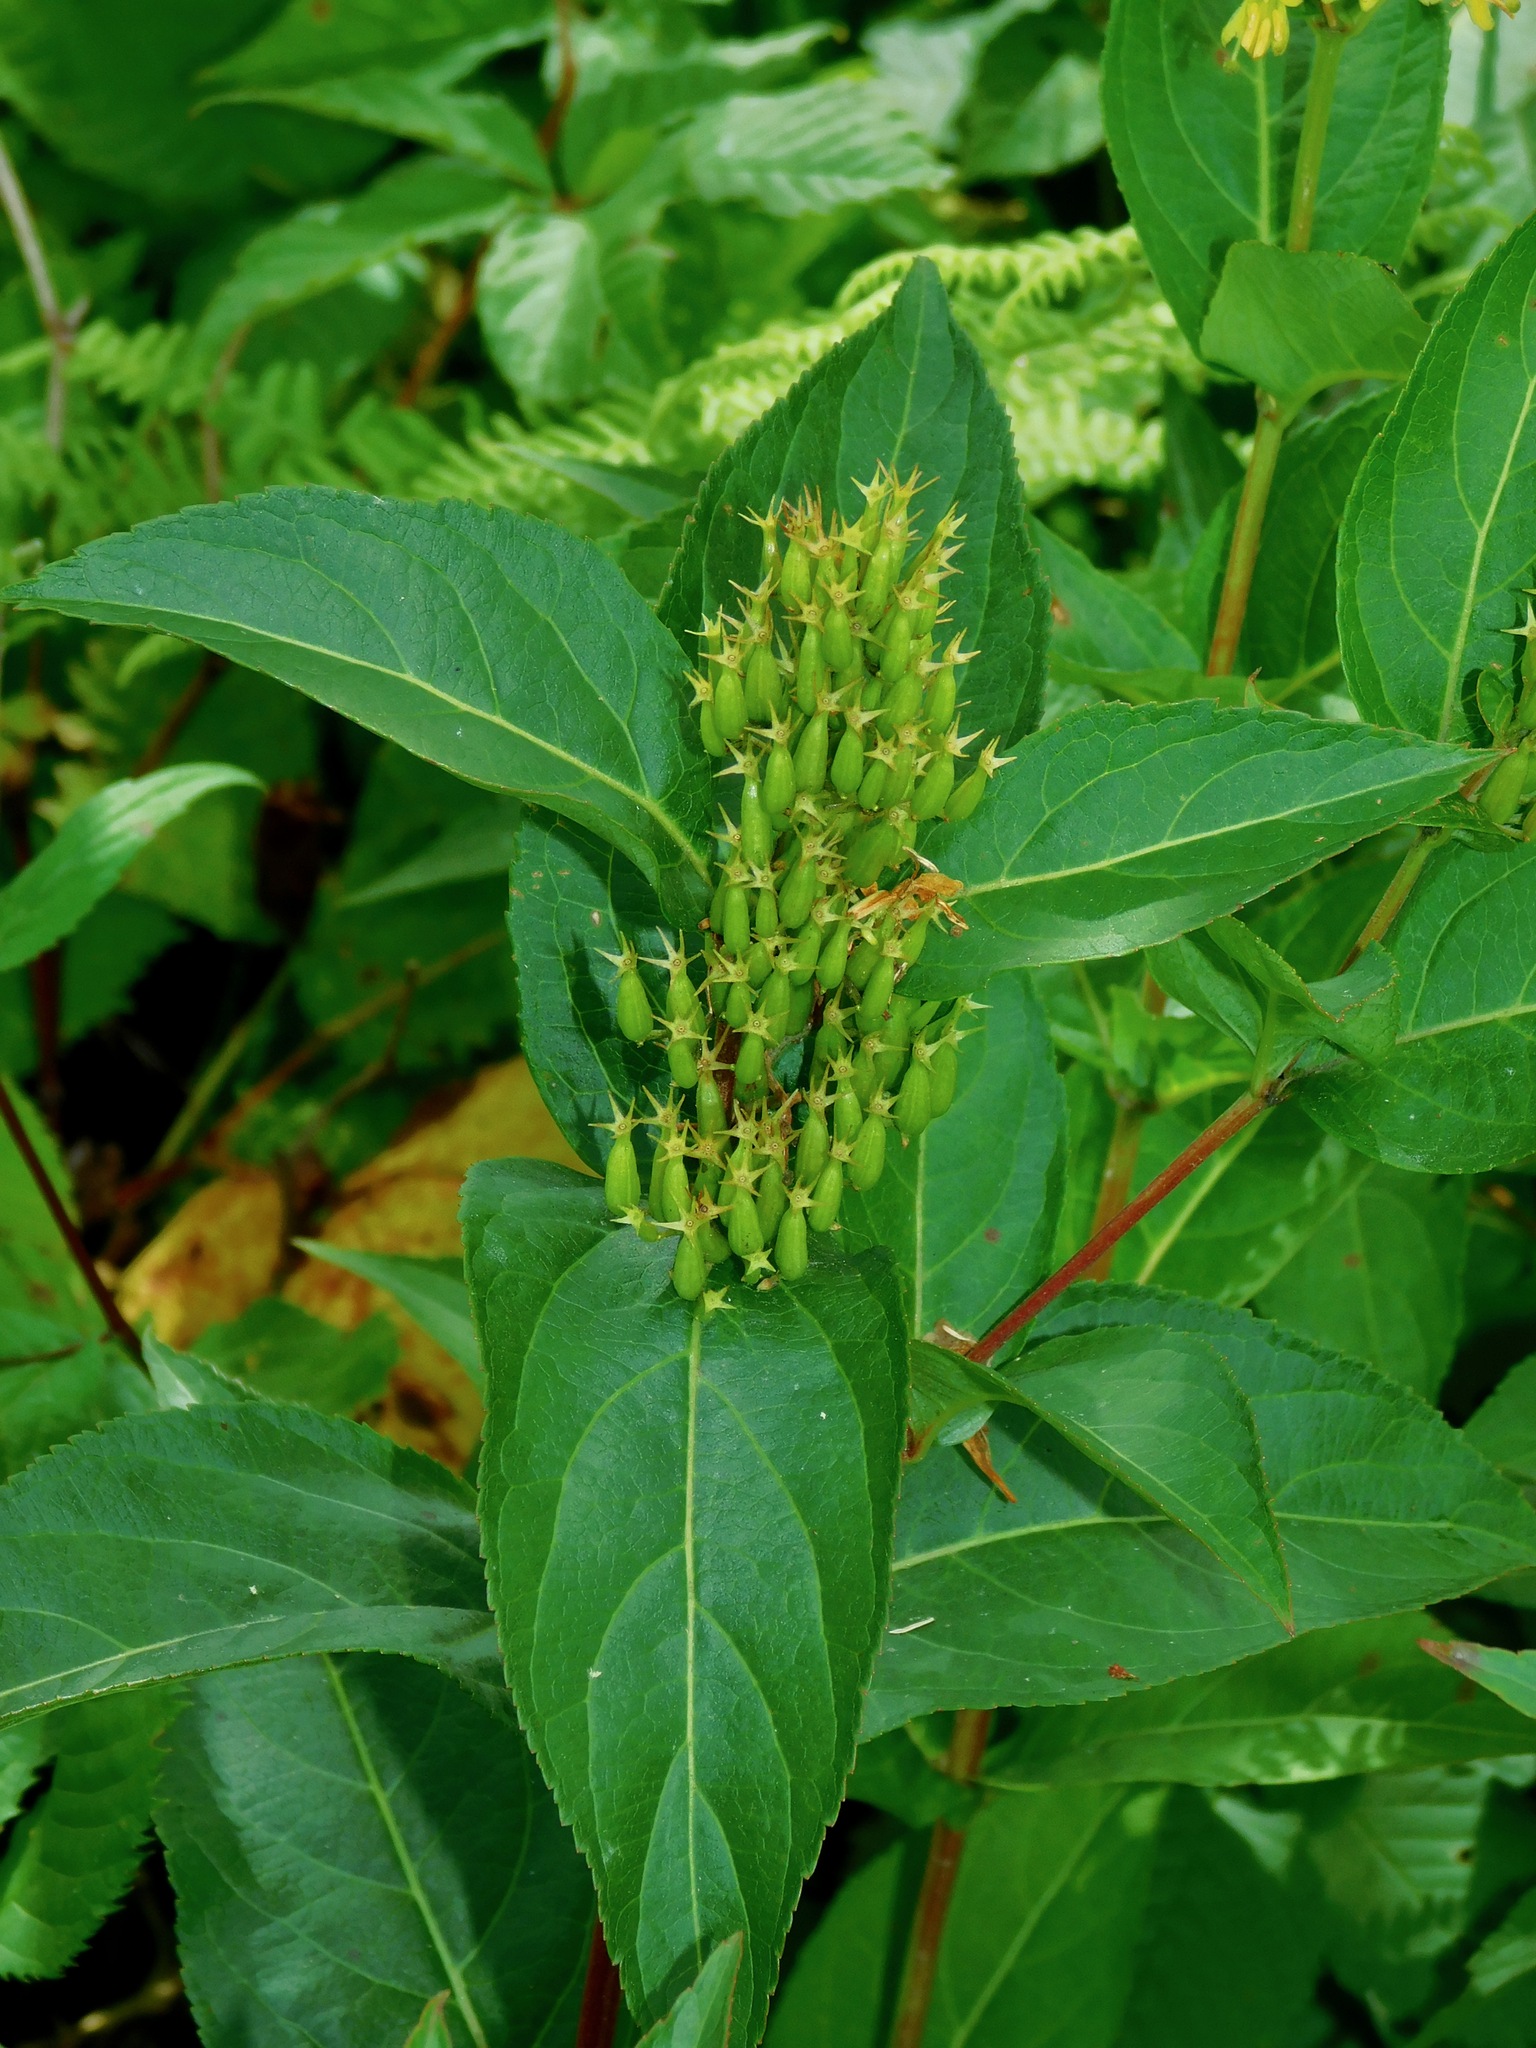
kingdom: Plantae
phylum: Tracheophyta
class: Magnoliopsida
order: Dipsacales
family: Caprifoliaceae
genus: Diervilla
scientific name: Diervilla sessilifolia
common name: Bush-honeysuckle
